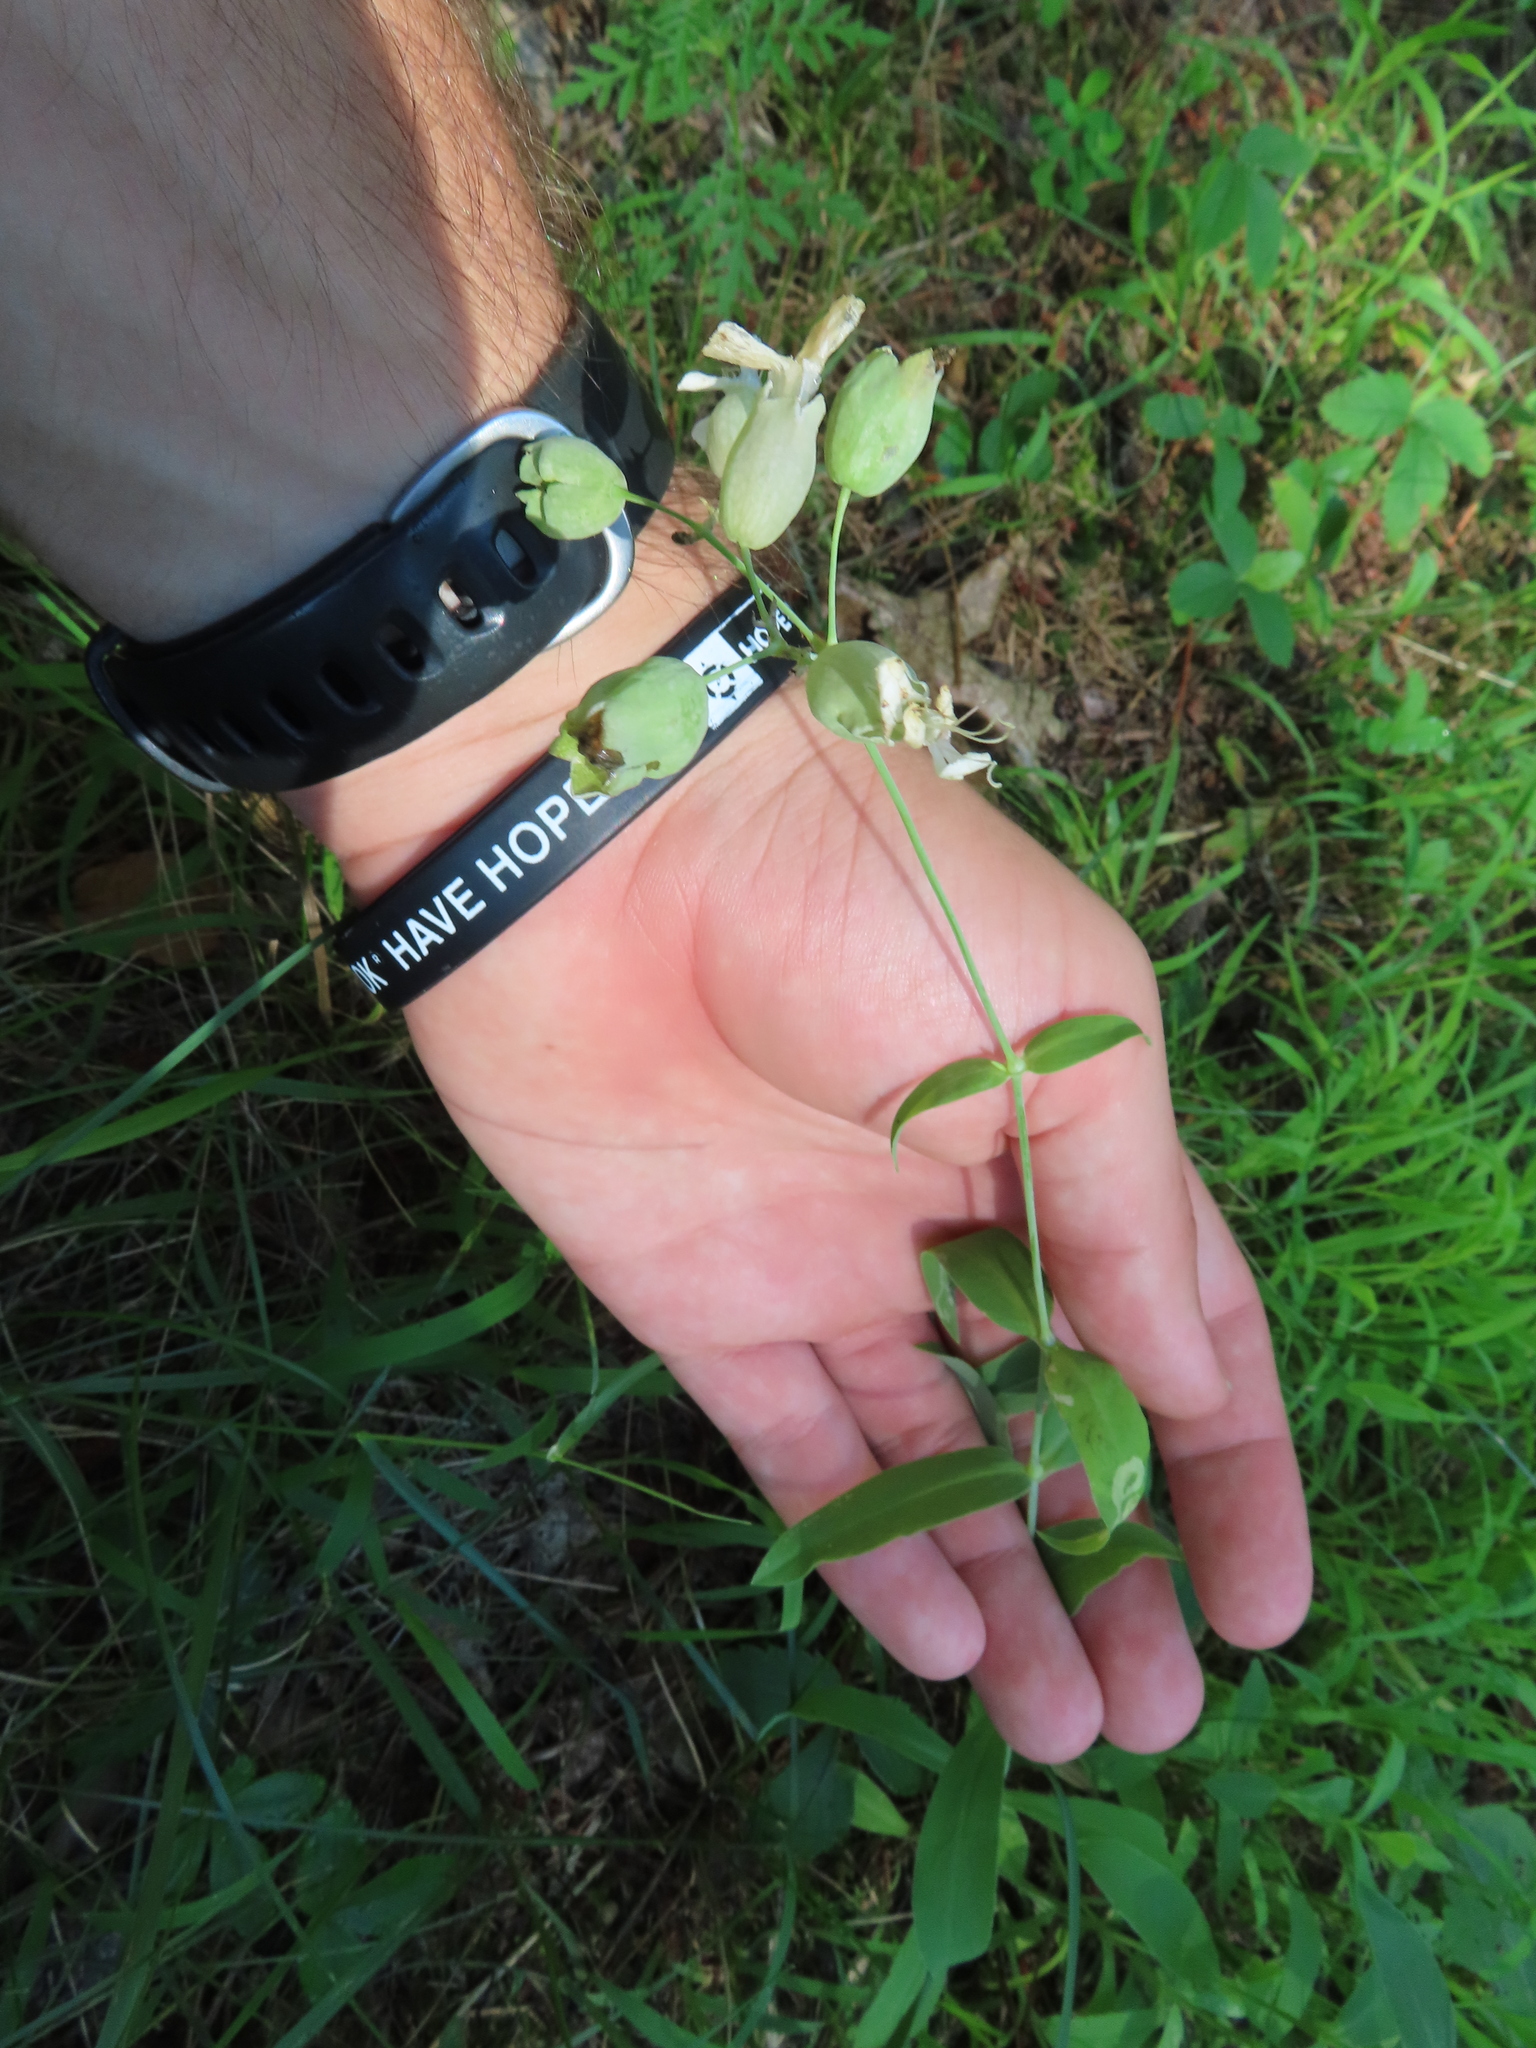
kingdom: Plantae
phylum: Tracheophyta
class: Magnoliopsida
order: Caryophyllales
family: Caryophyllaceae
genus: Silene
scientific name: Silene vulgaris
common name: Bladder campion
